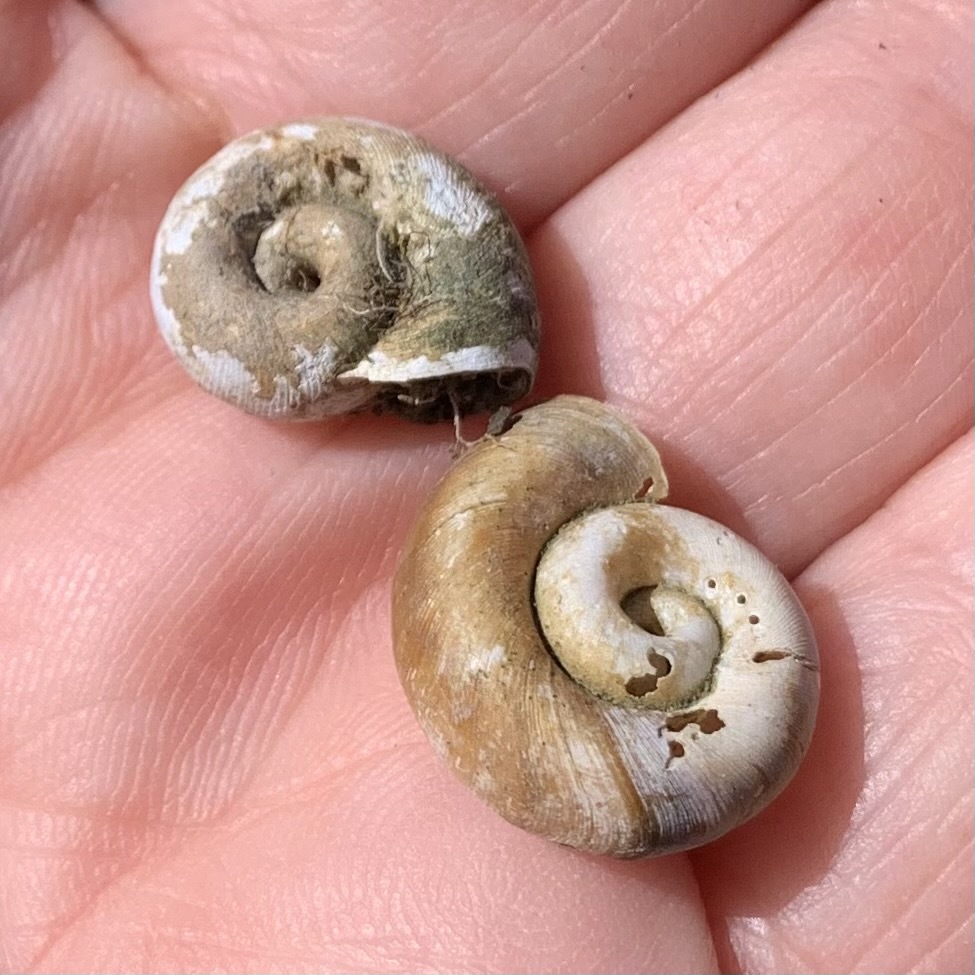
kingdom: Animalia
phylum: Mollusca
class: Gastropoda
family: Planorbidae
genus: Planorbella
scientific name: Planorbella trivolvis
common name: Marsh rams-horn
